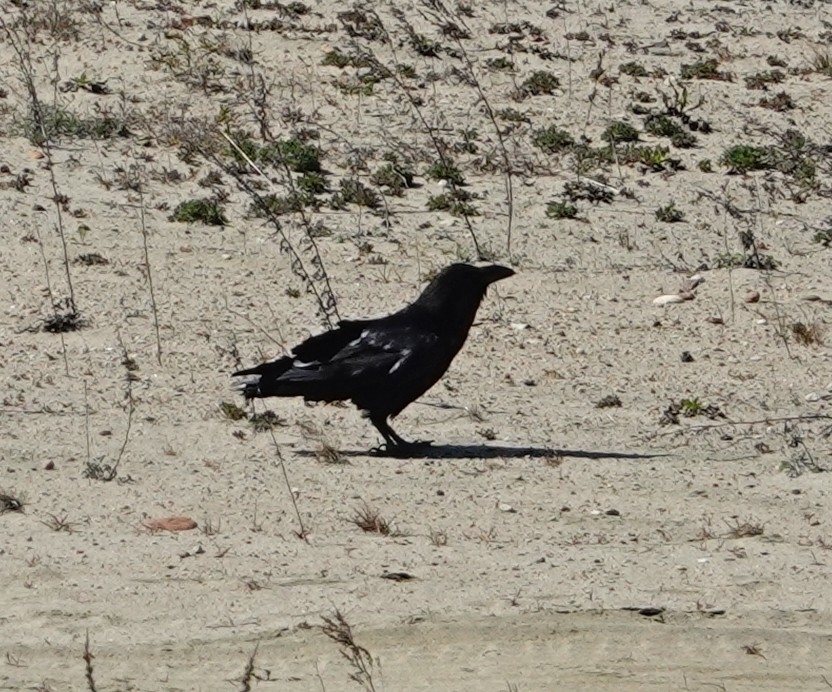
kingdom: Animalia
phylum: Chordata
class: Aves
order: Passeriformes
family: Corvidae
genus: Corvus
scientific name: Corvus corax
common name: Common raven
